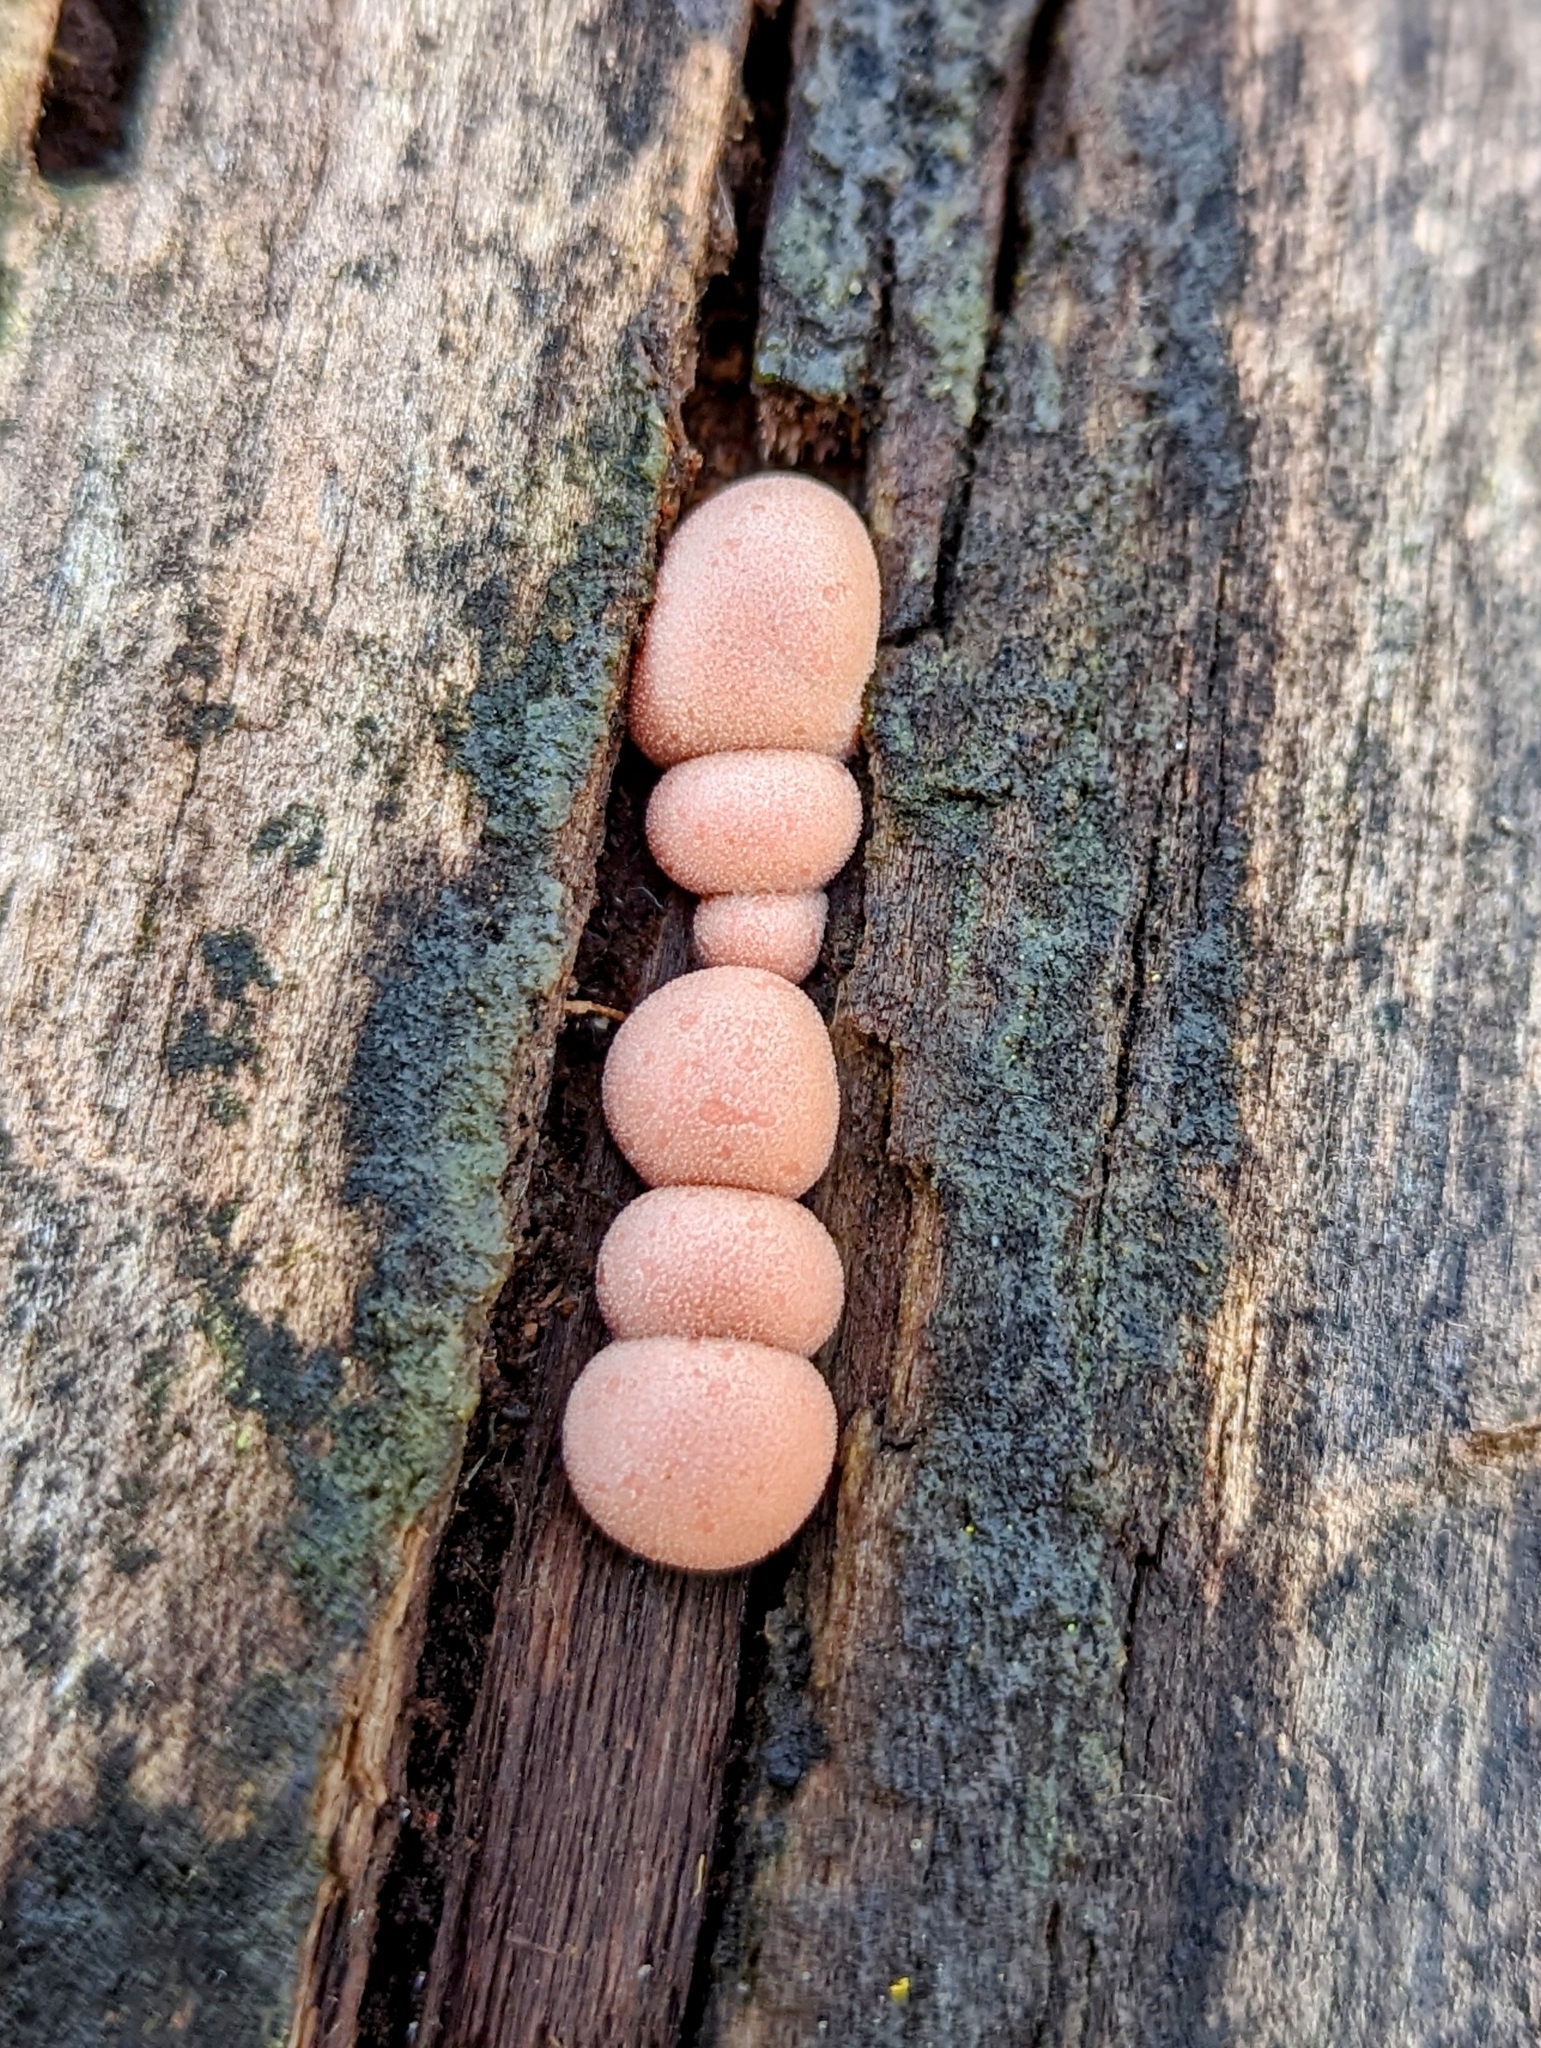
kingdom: Protozoa
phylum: Mycetozoa
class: Myxomycetes
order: Cribrariales
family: Tubiferaceae
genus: Lycogala
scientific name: Lycogala epidendrum
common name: Wolf's milk
